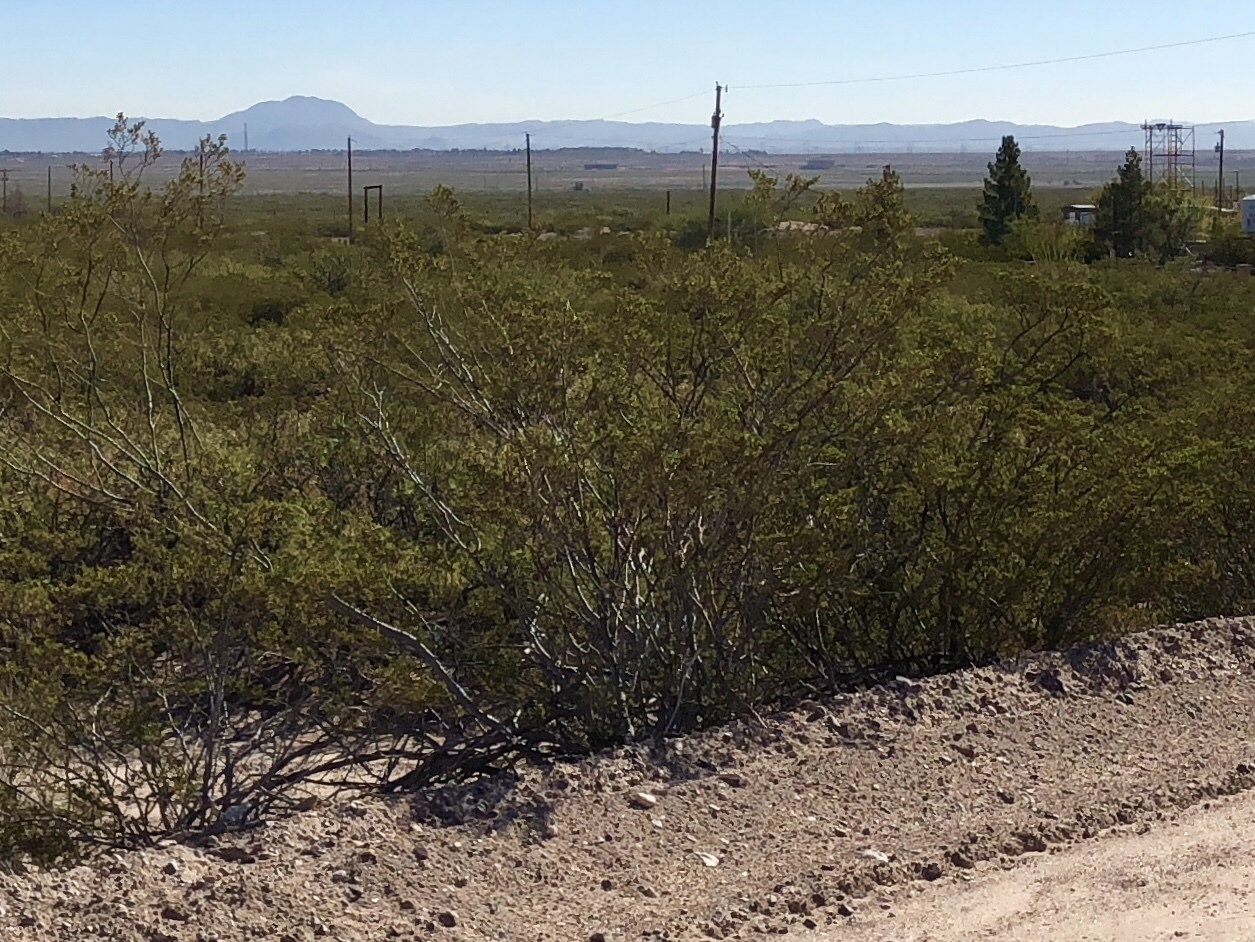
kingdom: Plantae
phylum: Tracheophyta
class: Magnoliopsida
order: Zygophyllales
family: Zygophyllaceae
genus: Larrea
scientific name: Larrea tridentata
